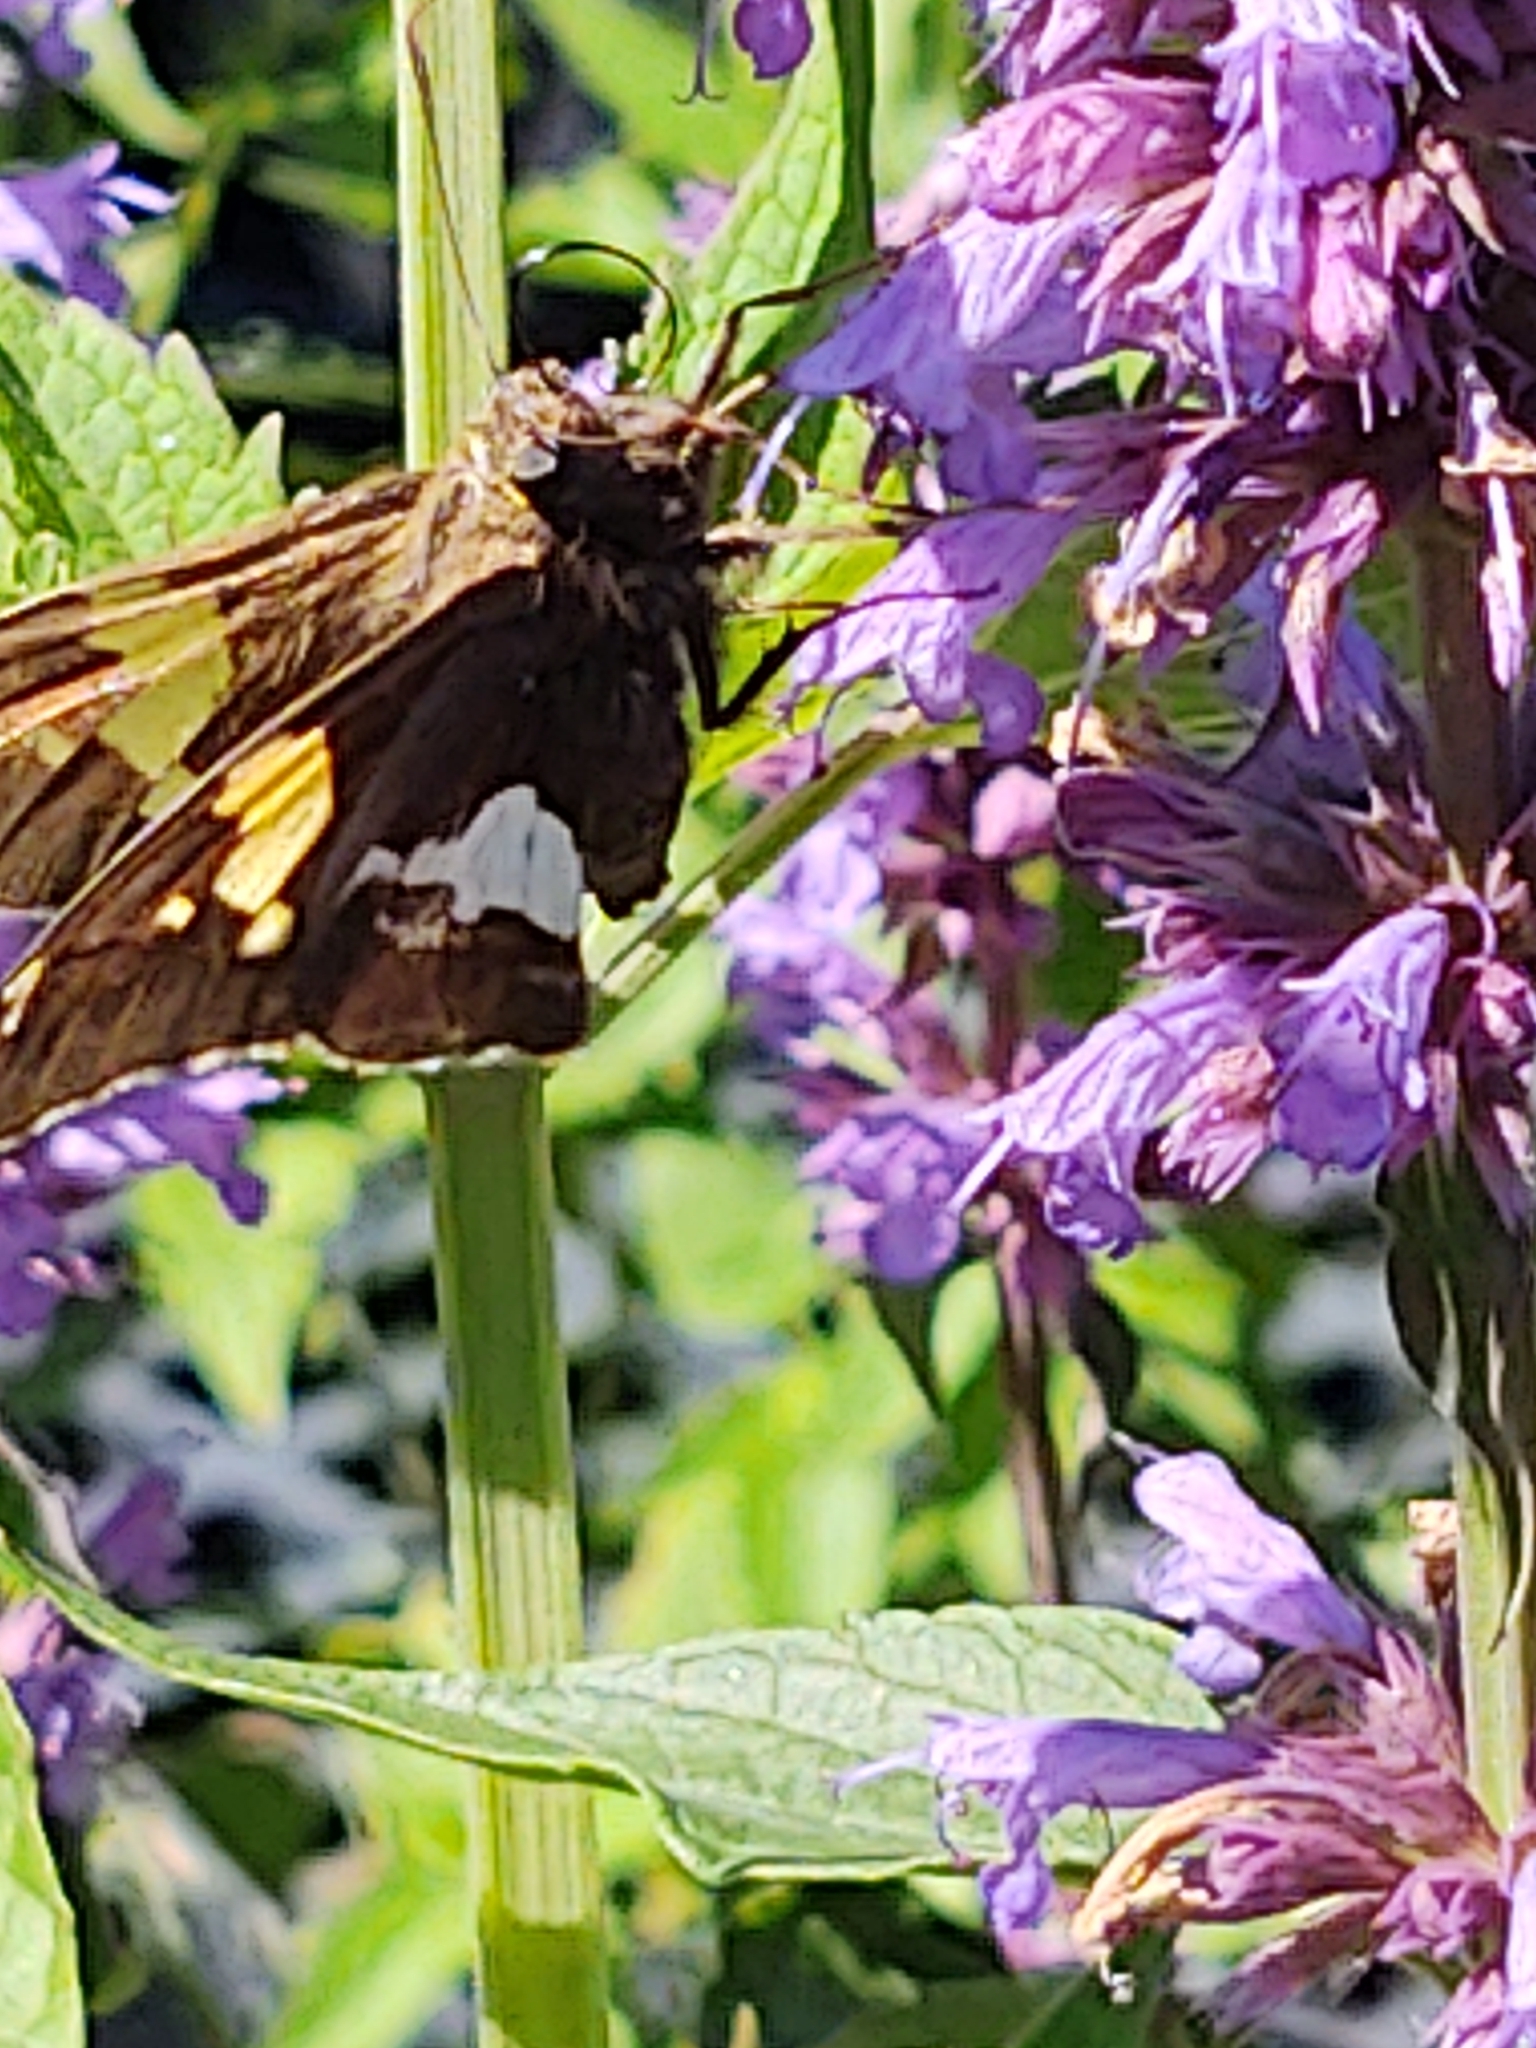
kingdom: Animalia
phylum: Arthropoda
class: Insecta
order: Lepidoptera
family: Hesperiidae
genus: Epargyreus
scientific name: Epargyreus clarus
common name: Silver-spotted skipper
